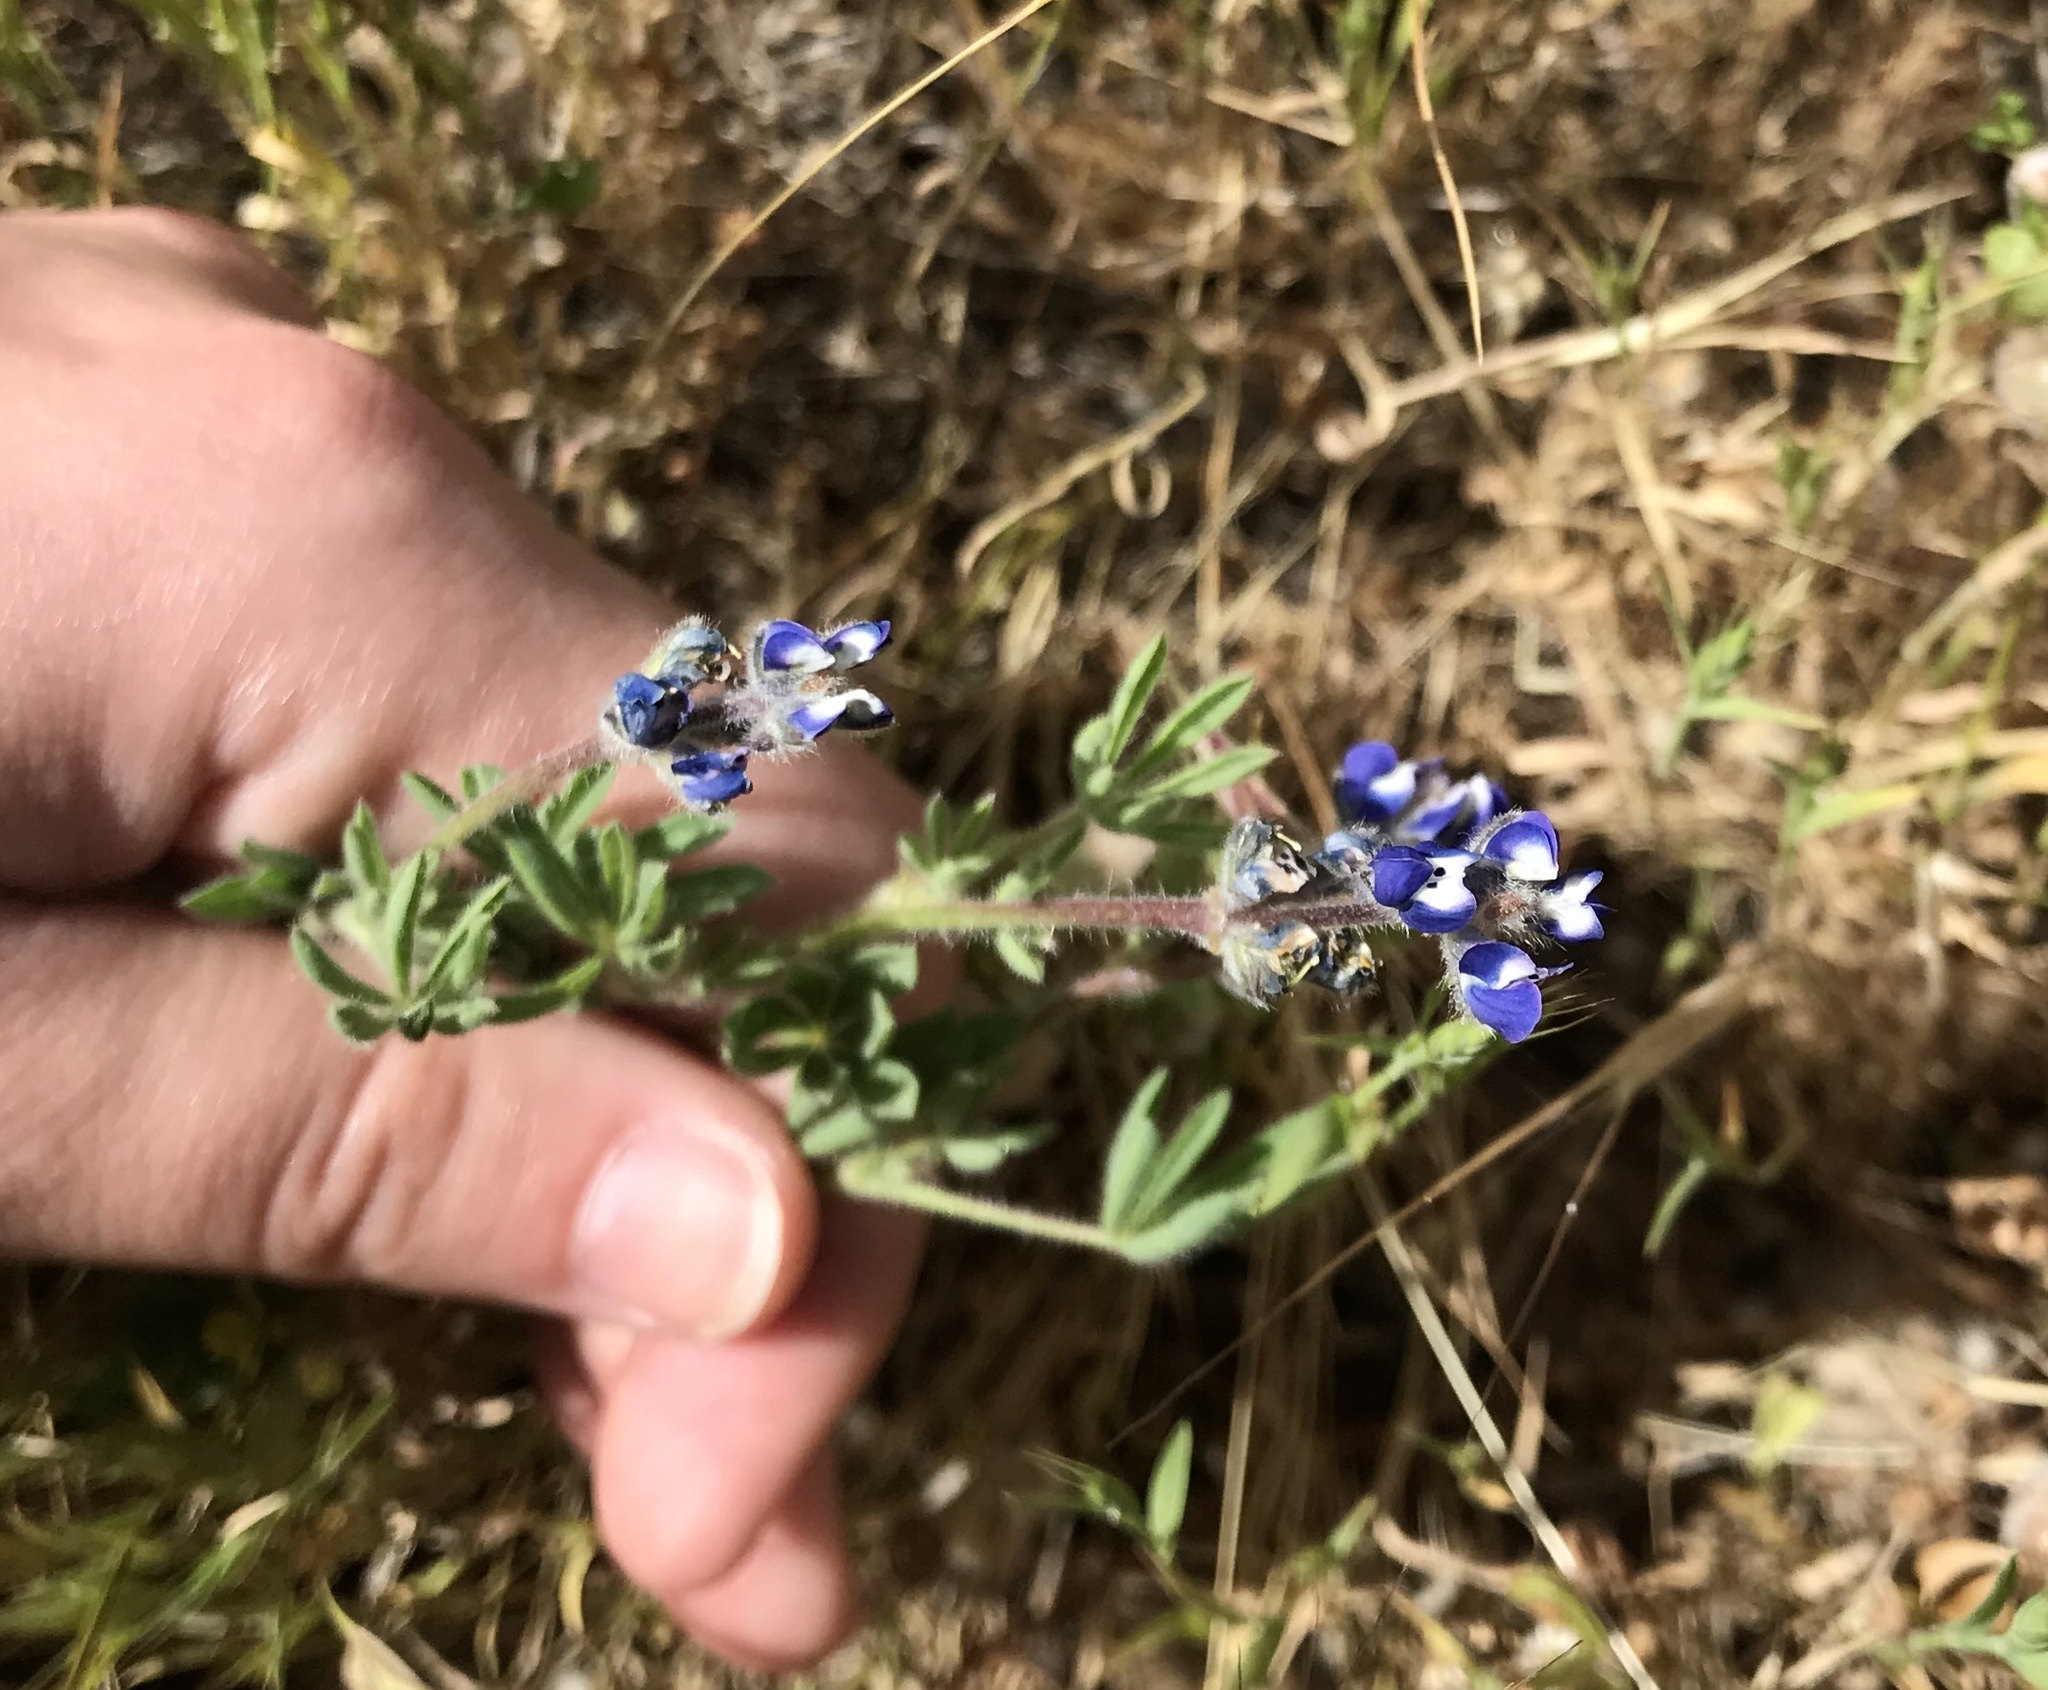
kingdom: Plantae
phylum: Tracheophyta
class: Magnoliopsida
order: Fabales
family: Fabaceae
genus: Lupinus
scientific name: Lupinus bicolor
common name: Miniature lupine
